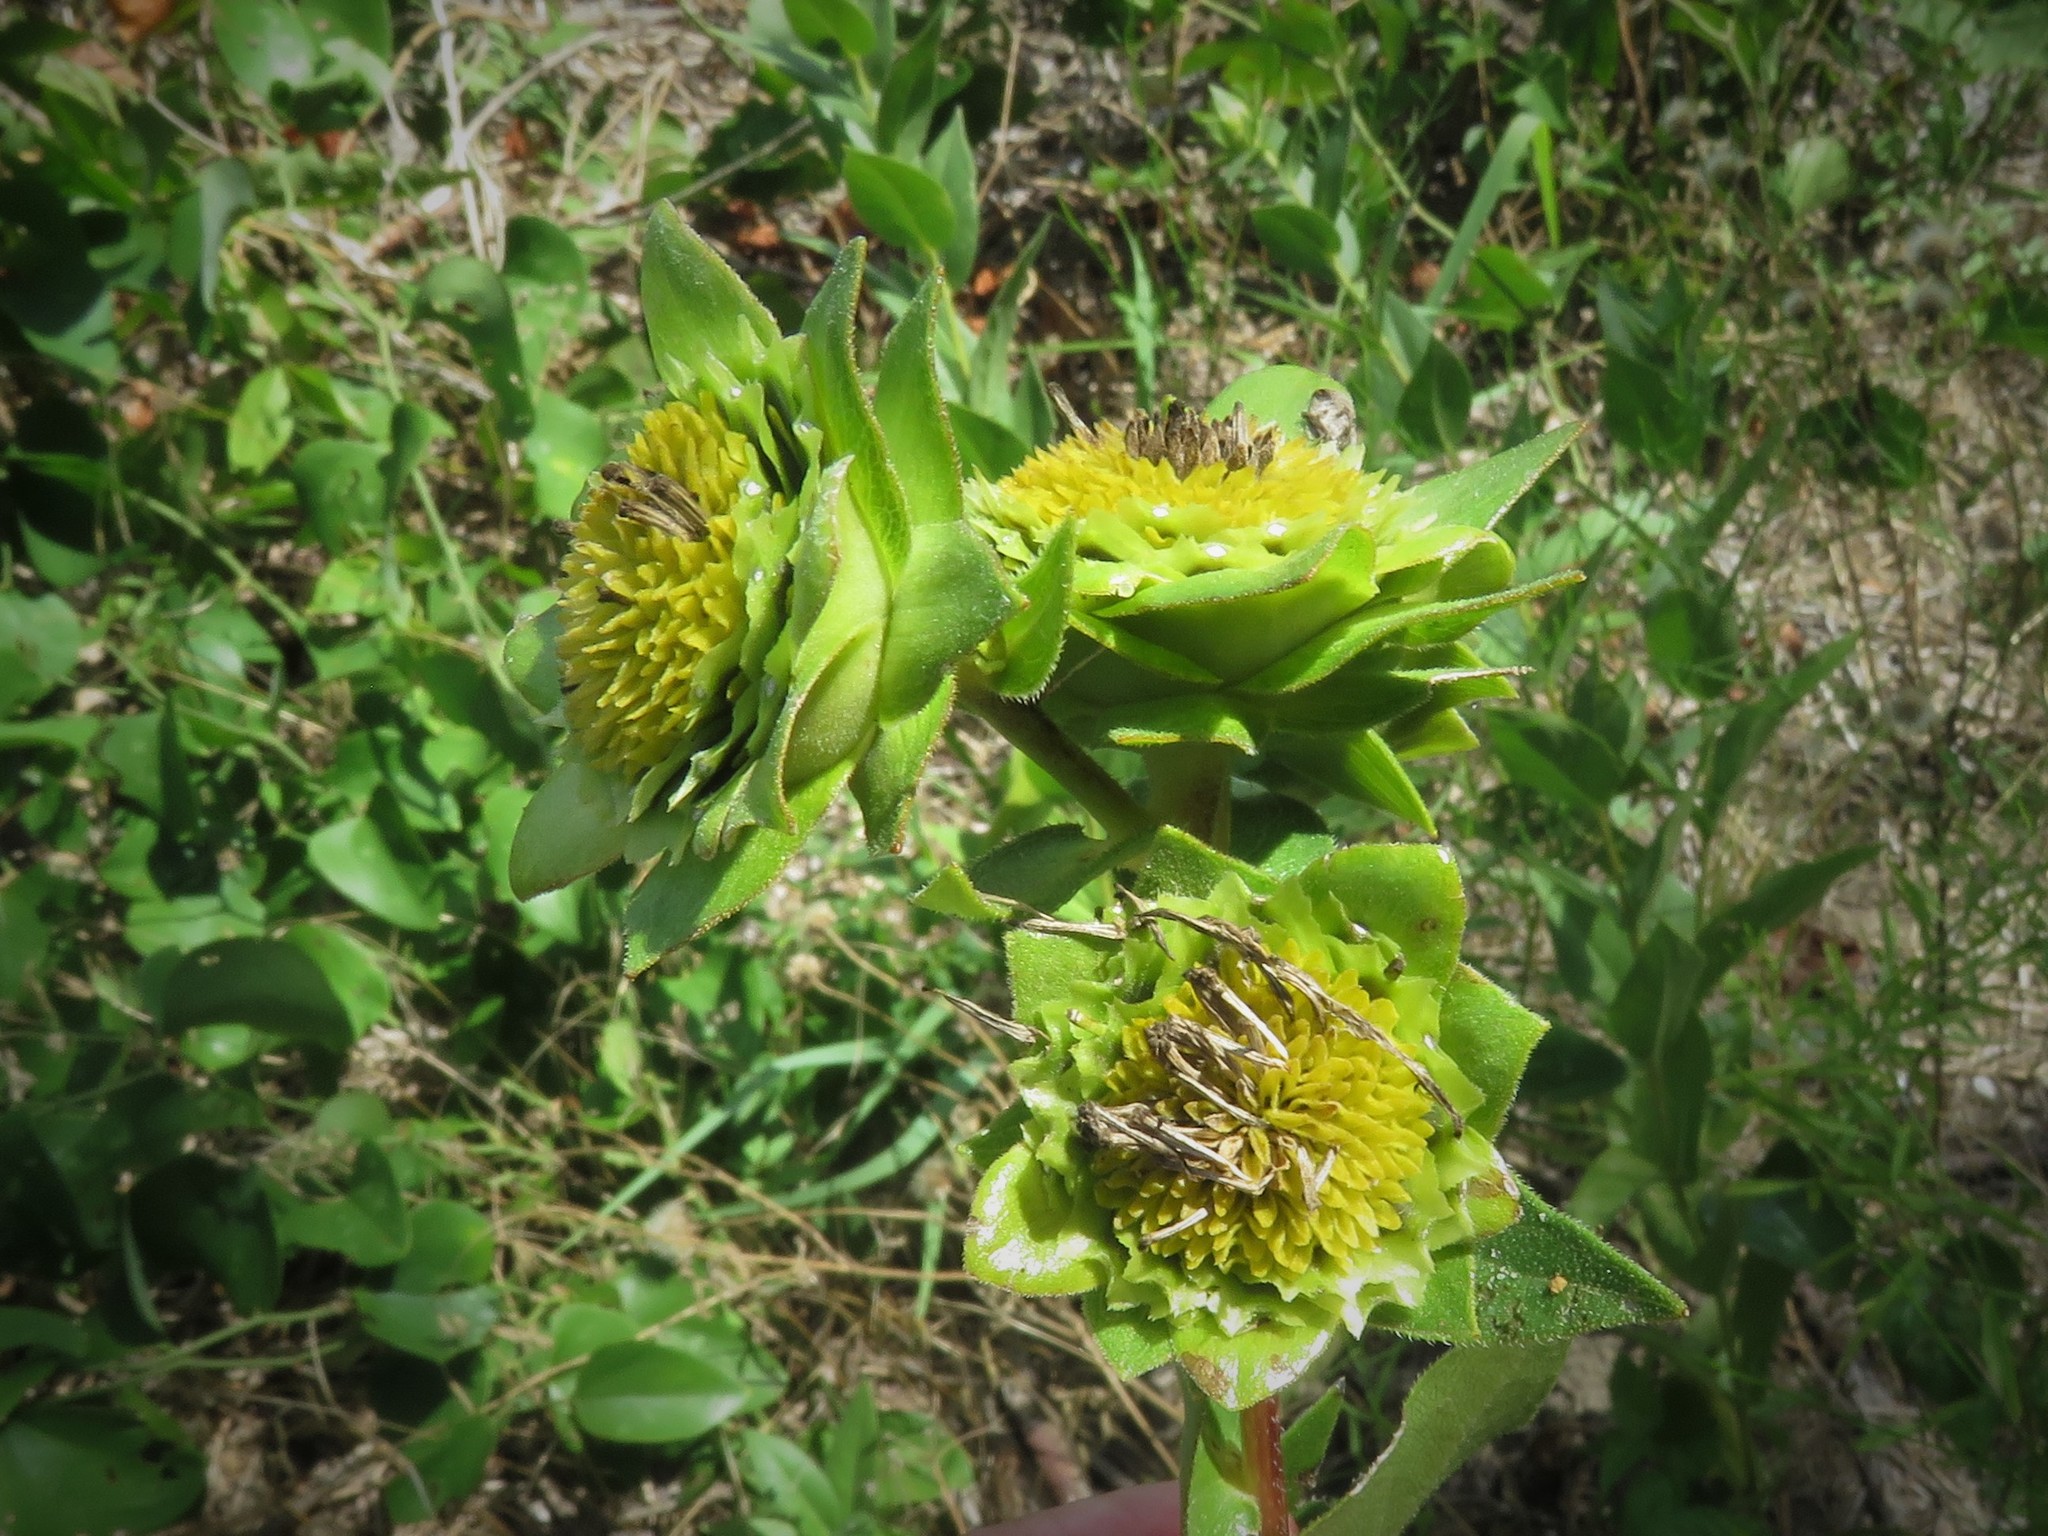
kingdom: Plantae
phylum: Tracheophyta
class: Magnoliopsida
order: Asterales
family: Asteraceae
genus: Silphium
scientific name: Silphium radula
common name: Roughleaf rosinweed
